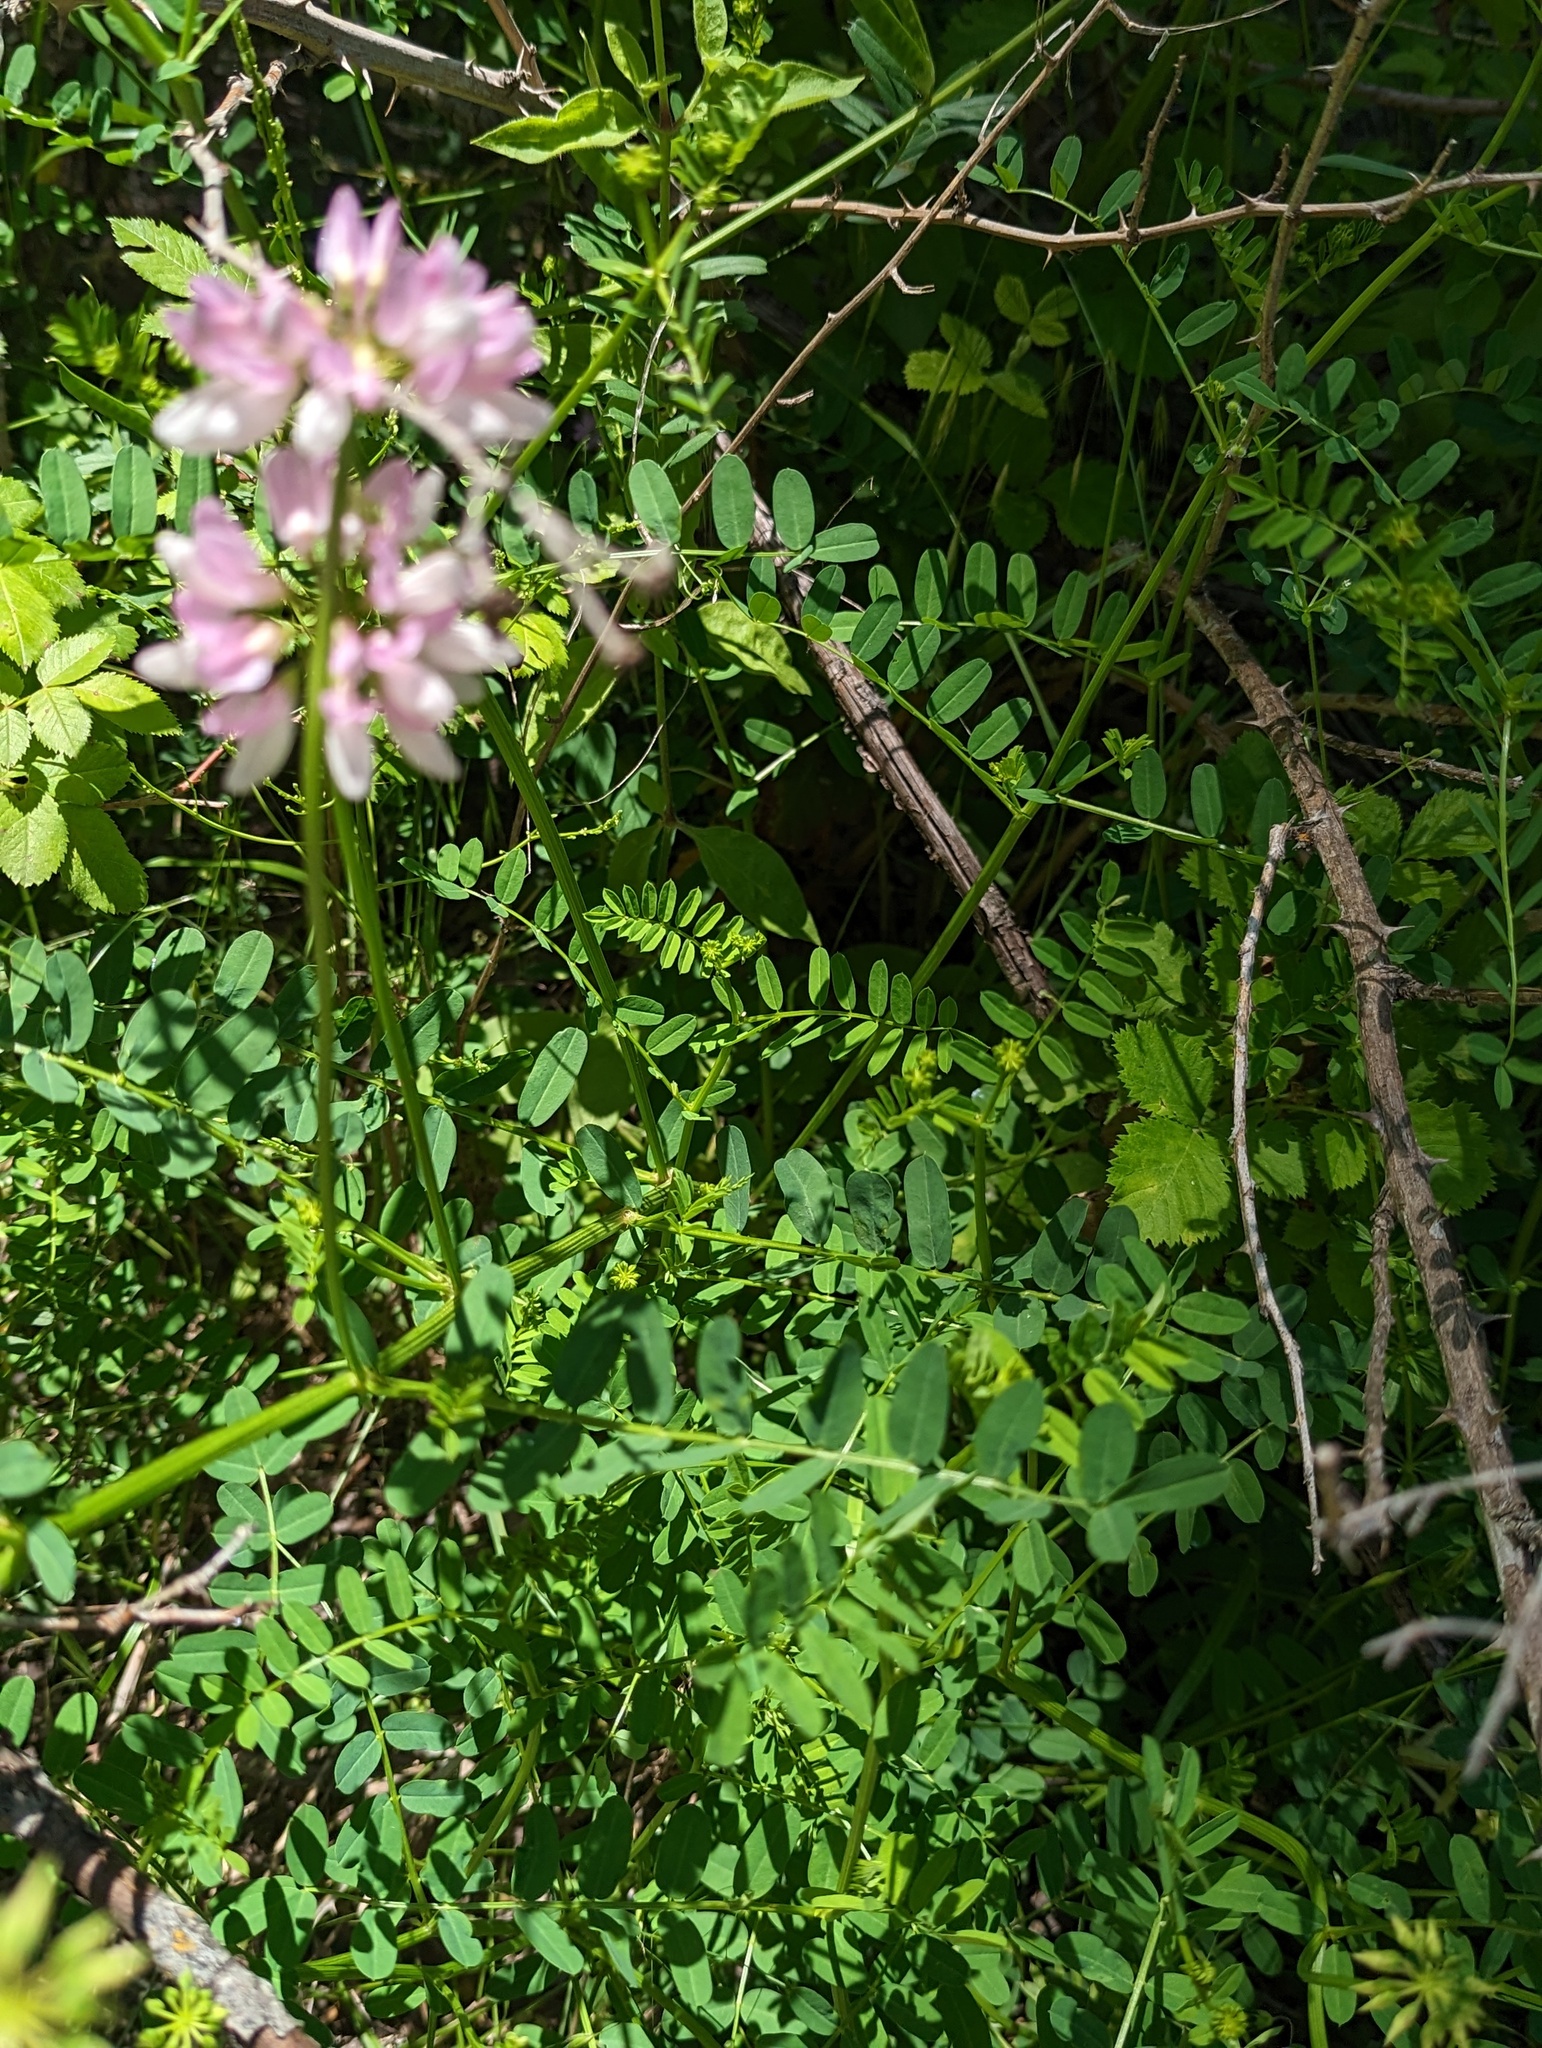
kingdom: Plantae
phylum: Tracheophyta
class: Magnoliopsida
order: Fabales
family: Fabaceae
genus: Coronilla
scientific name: Coronilla varia
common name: Crownvetch
